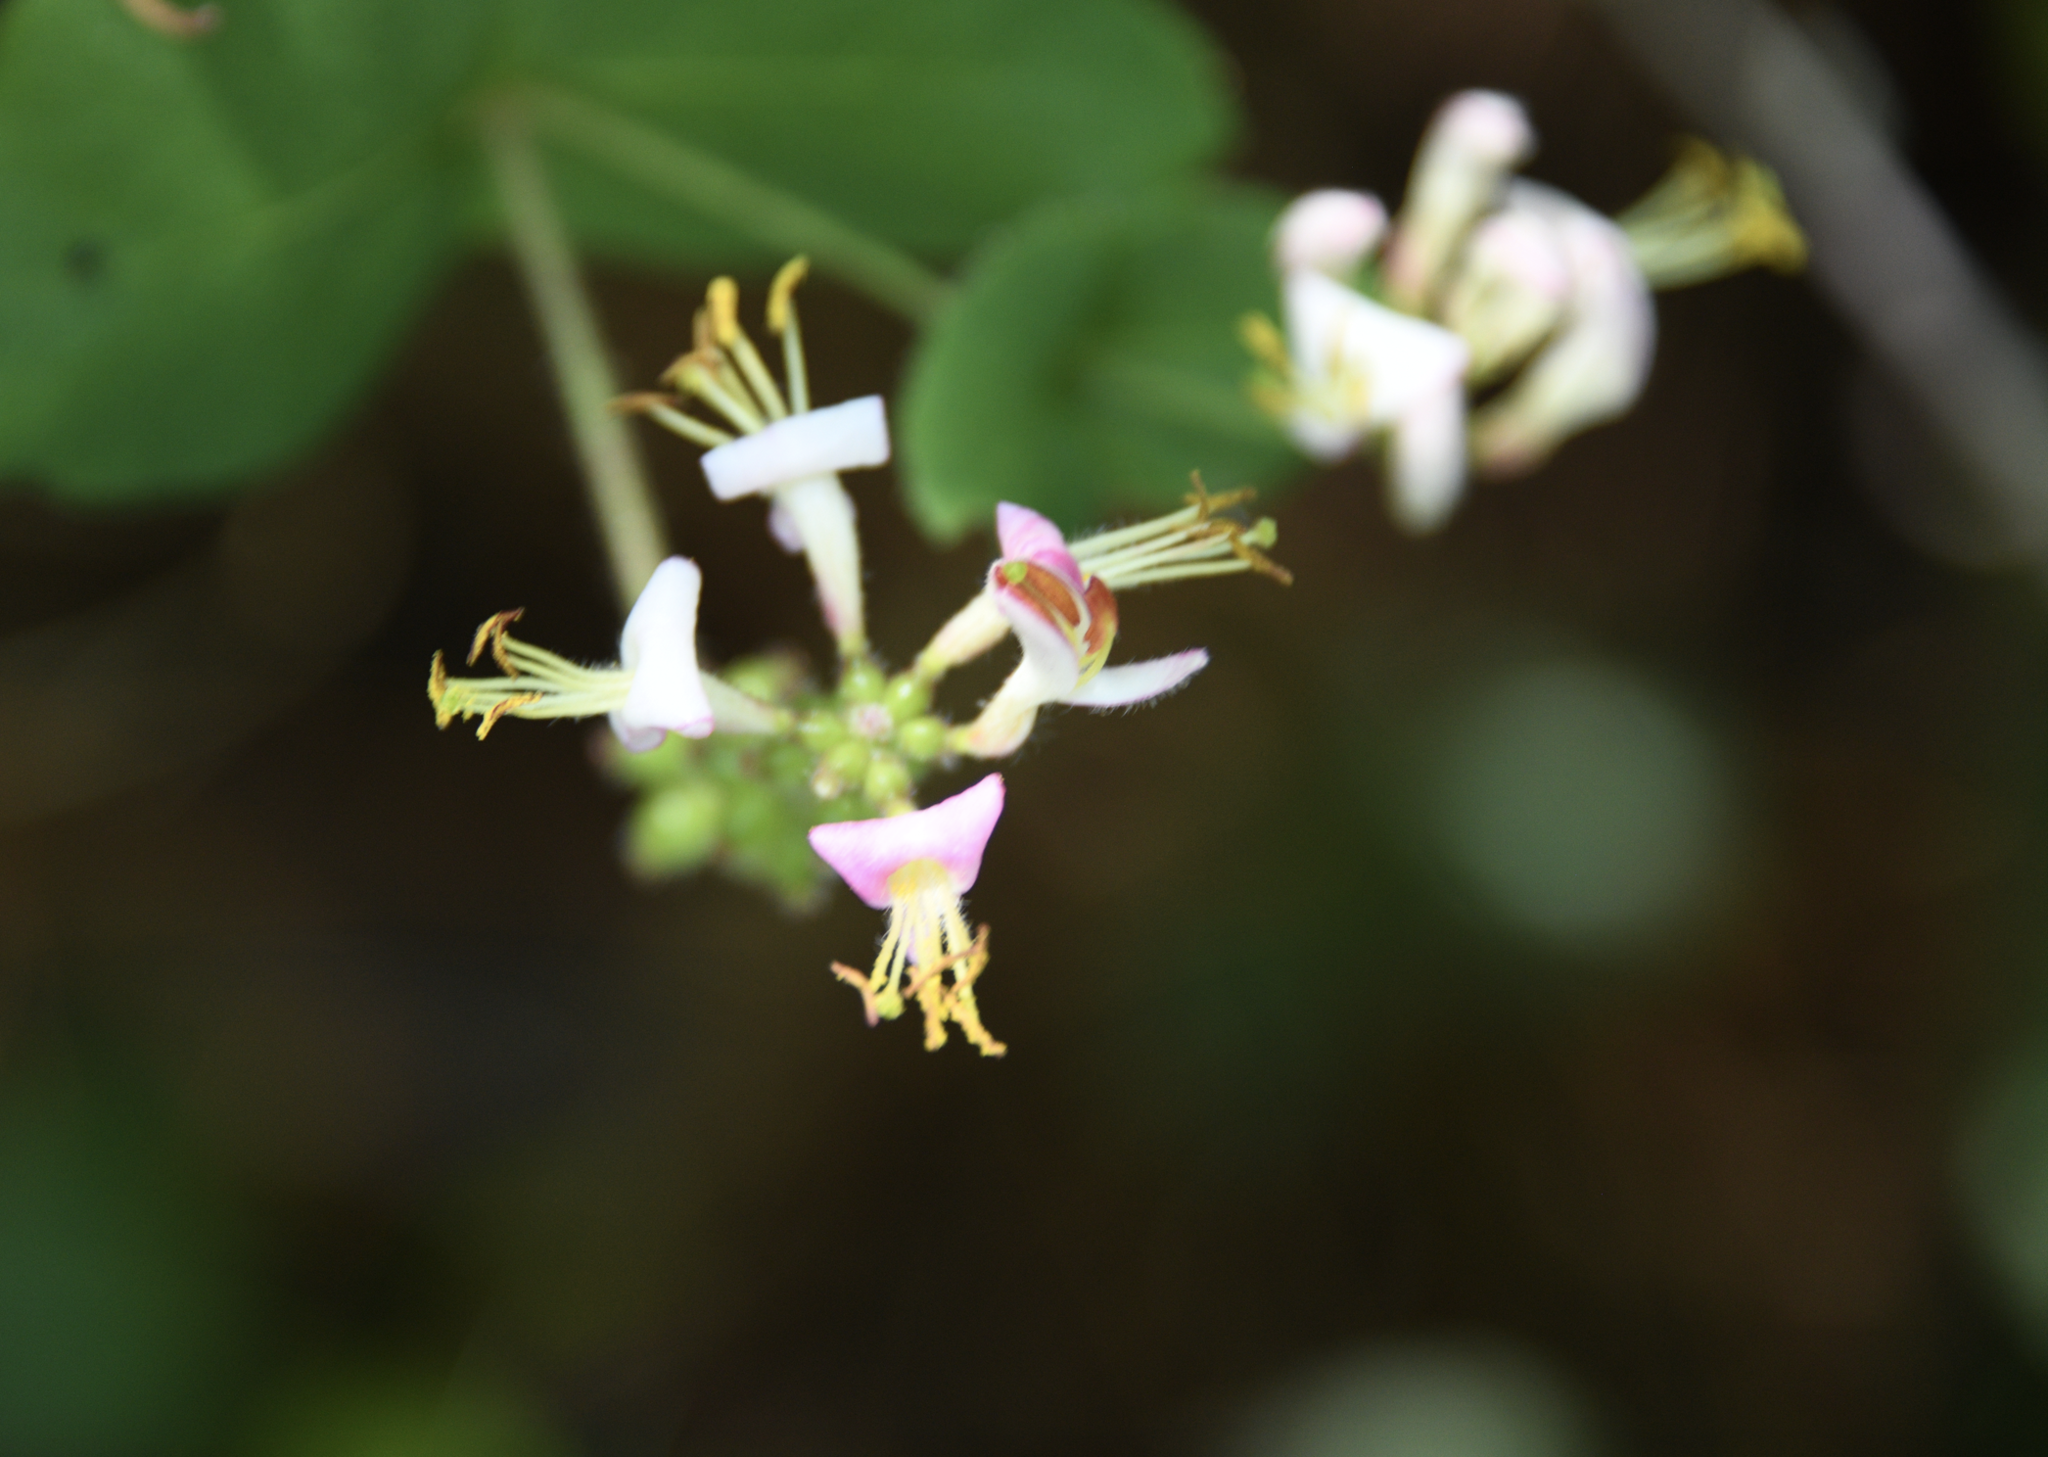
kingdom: Plantae
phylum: Tracheophyta
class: Magnoliopsida
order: Dipsacales
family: Caprifoliaceae
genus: Lonicera
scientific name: Lonicera hispidula
